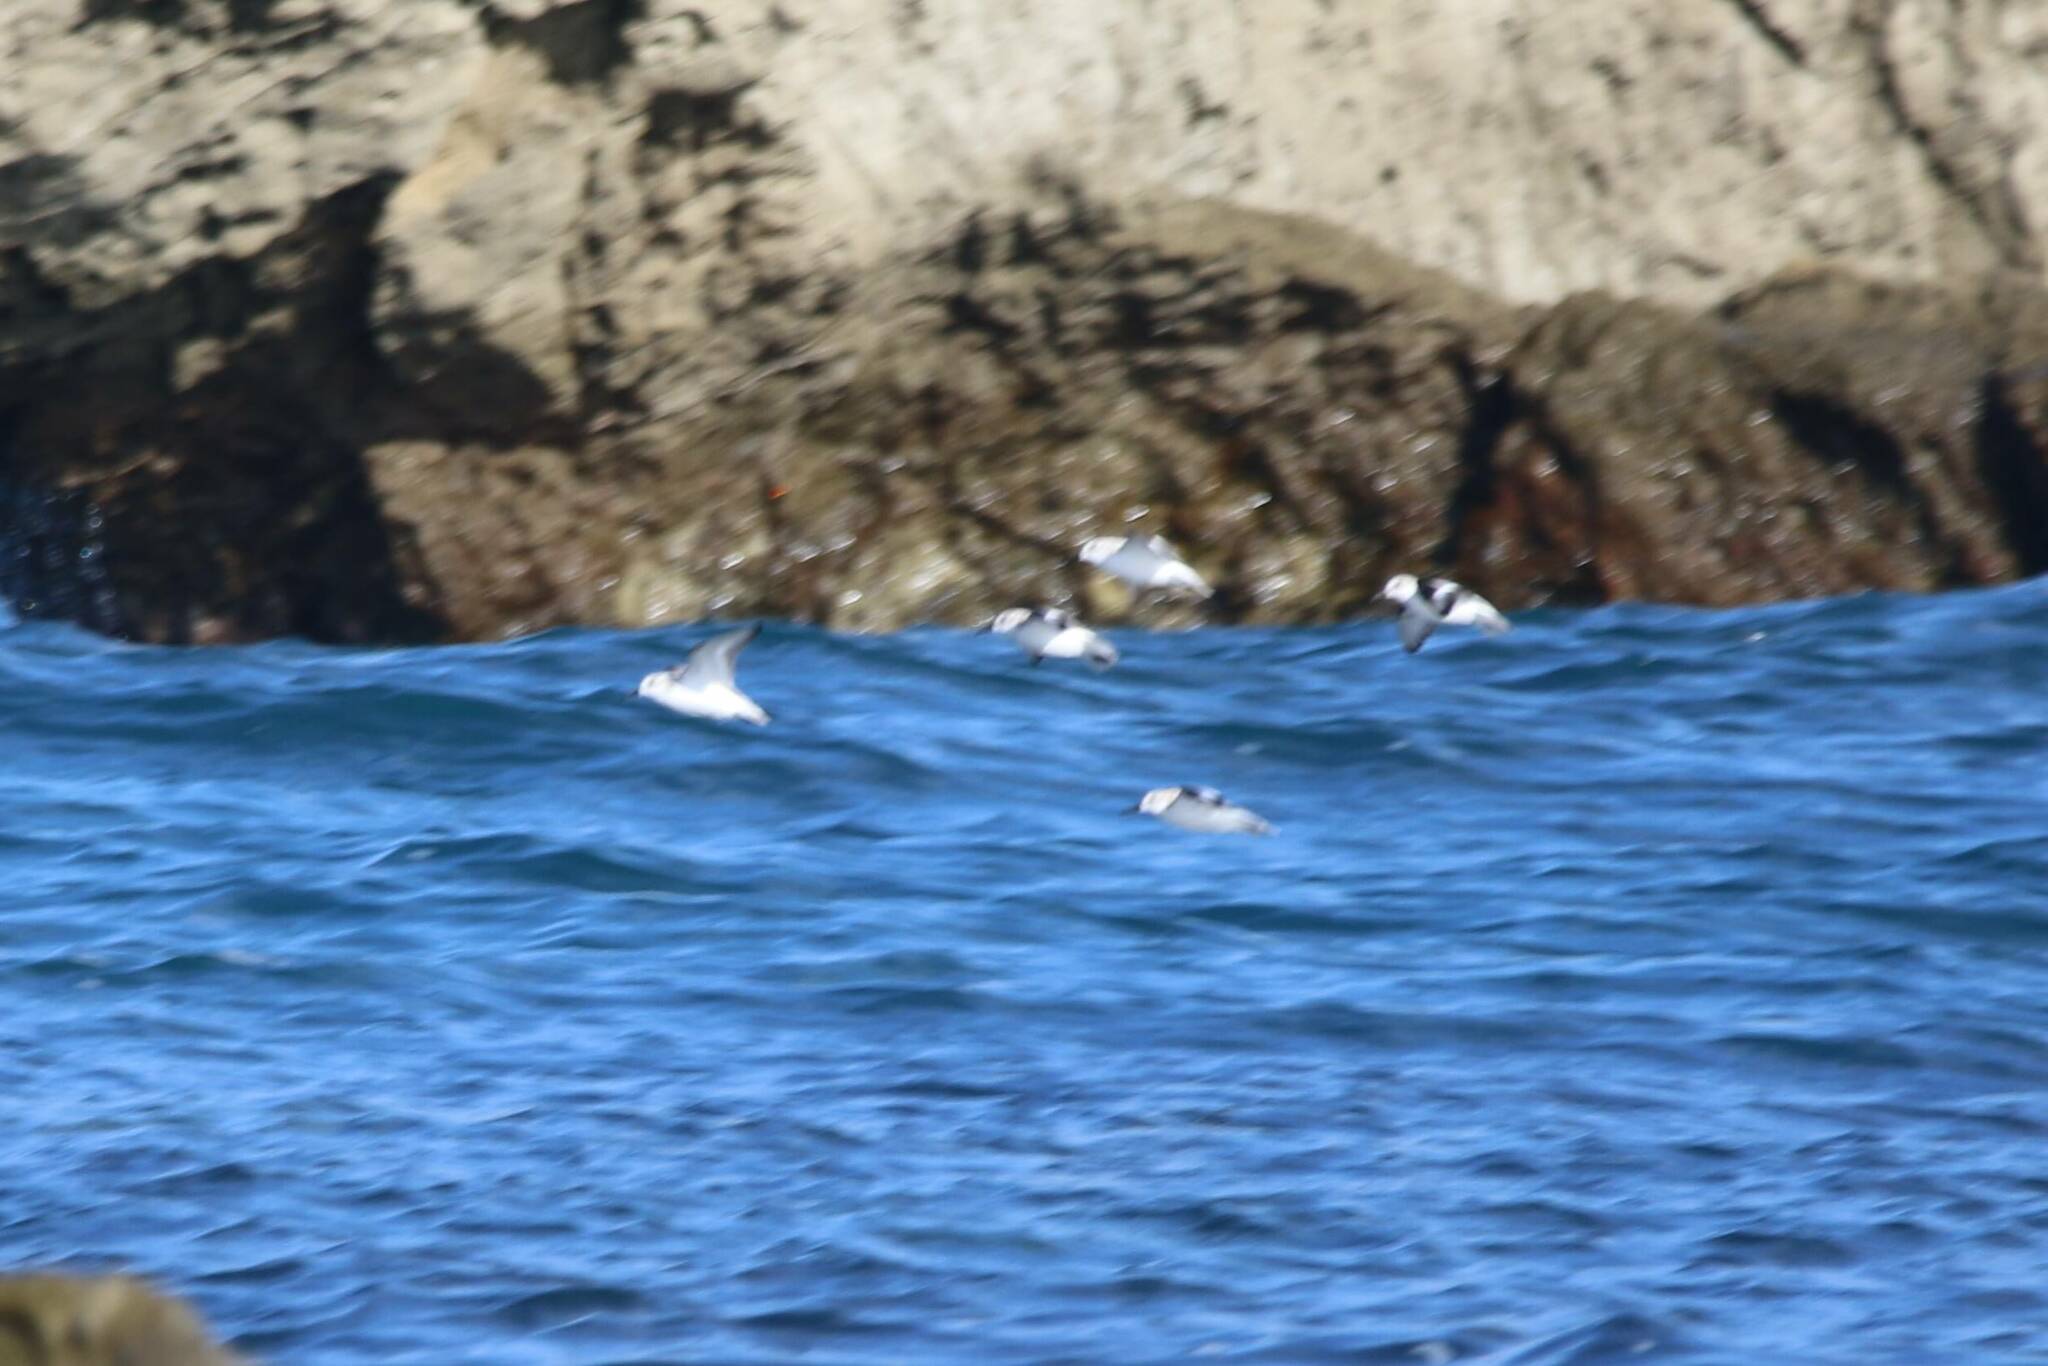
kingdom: Animalia
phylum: Chordata
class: Aves
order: Charadriiformes
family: Scolopacidae
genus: Calidris
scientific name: Calidris alba
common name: Sanderling
